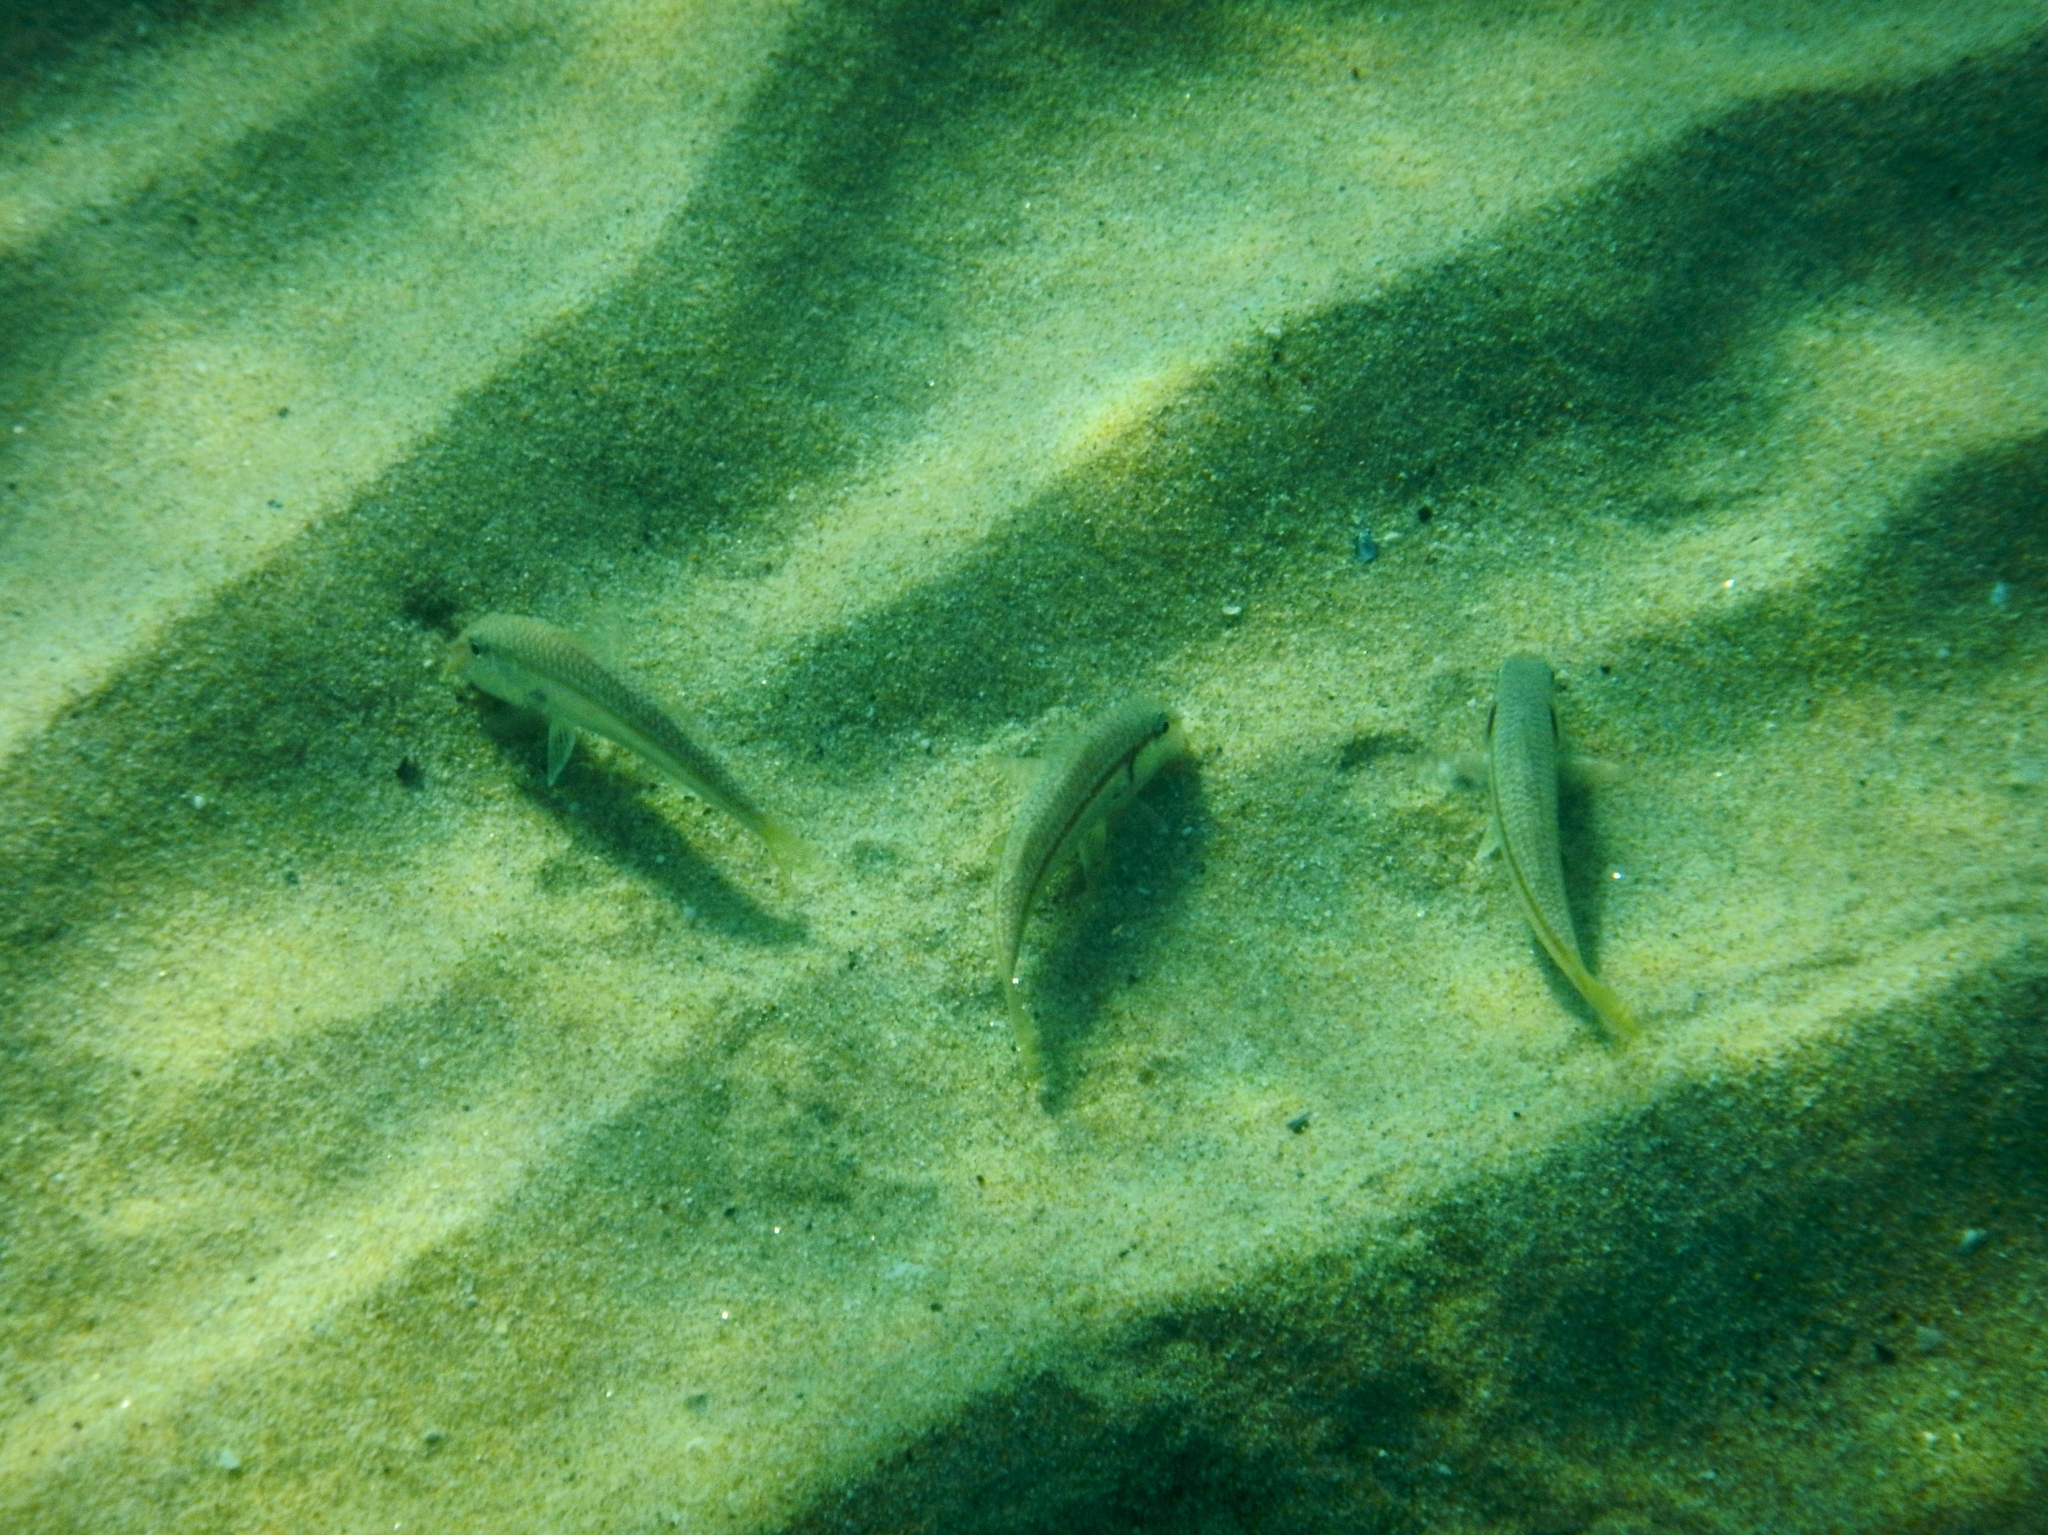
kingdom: Animalia
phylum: Chordata
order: Perciformes
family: Mullidae
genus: Mullus
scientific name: Mullus barbatus
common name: Blunt-snouted mullet
